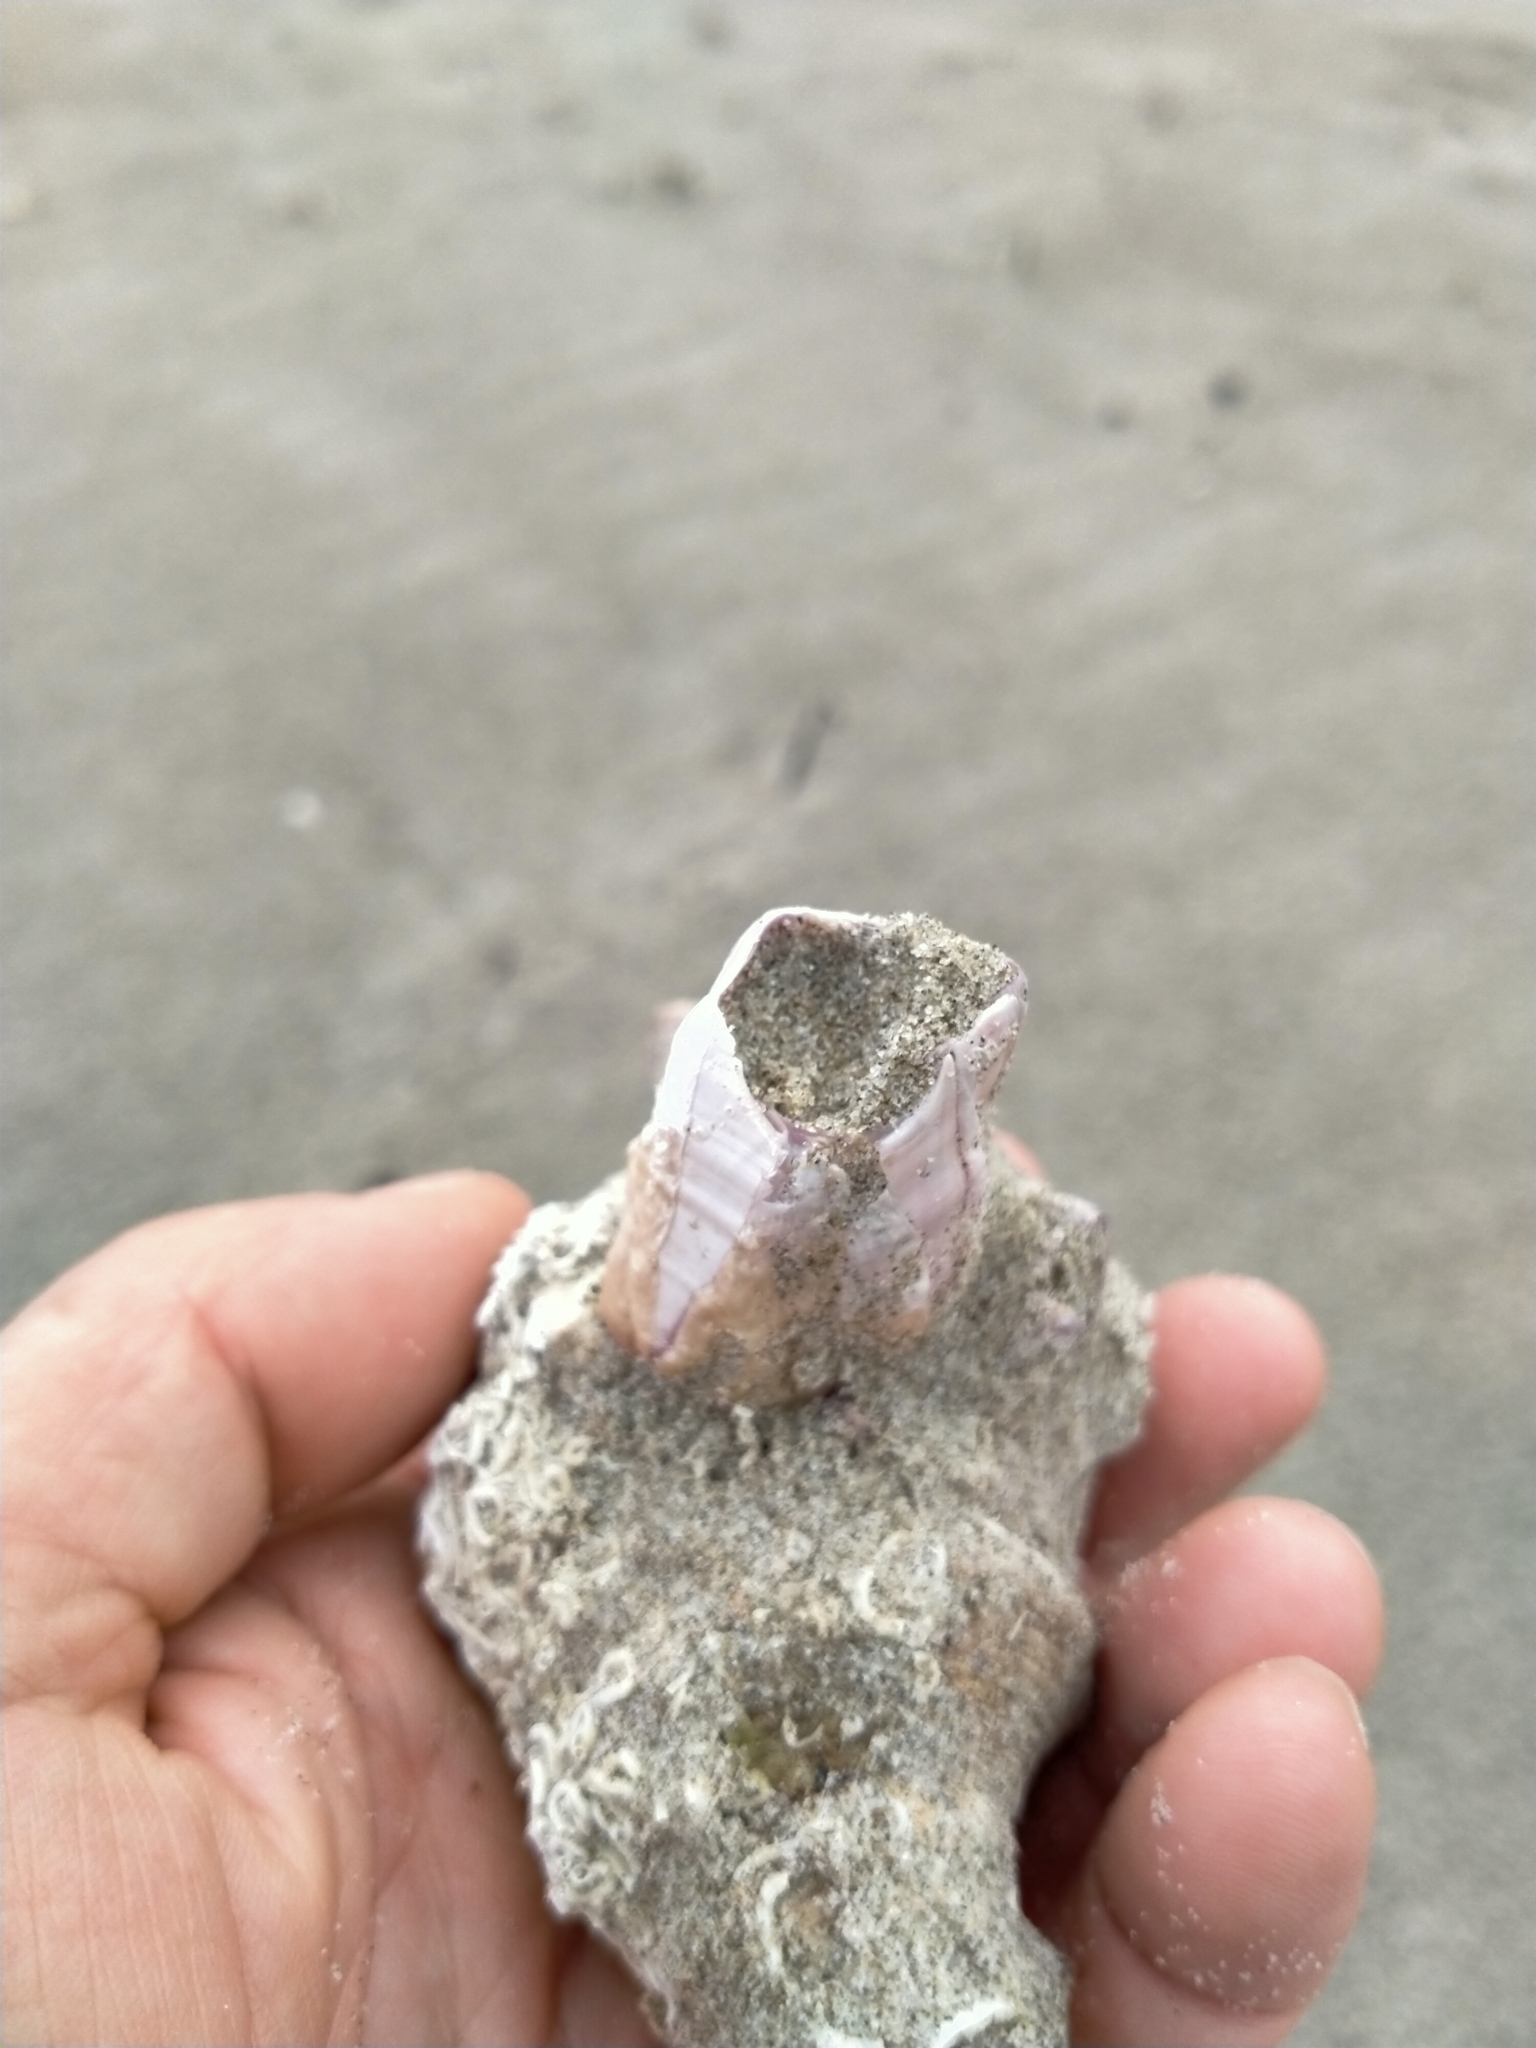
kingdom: Animalia
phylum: Arthropoda
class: Maxillopoda
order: Sessilia
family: Balanidae
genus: Notomegabalanus
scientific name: Notomegabalanus decorus
